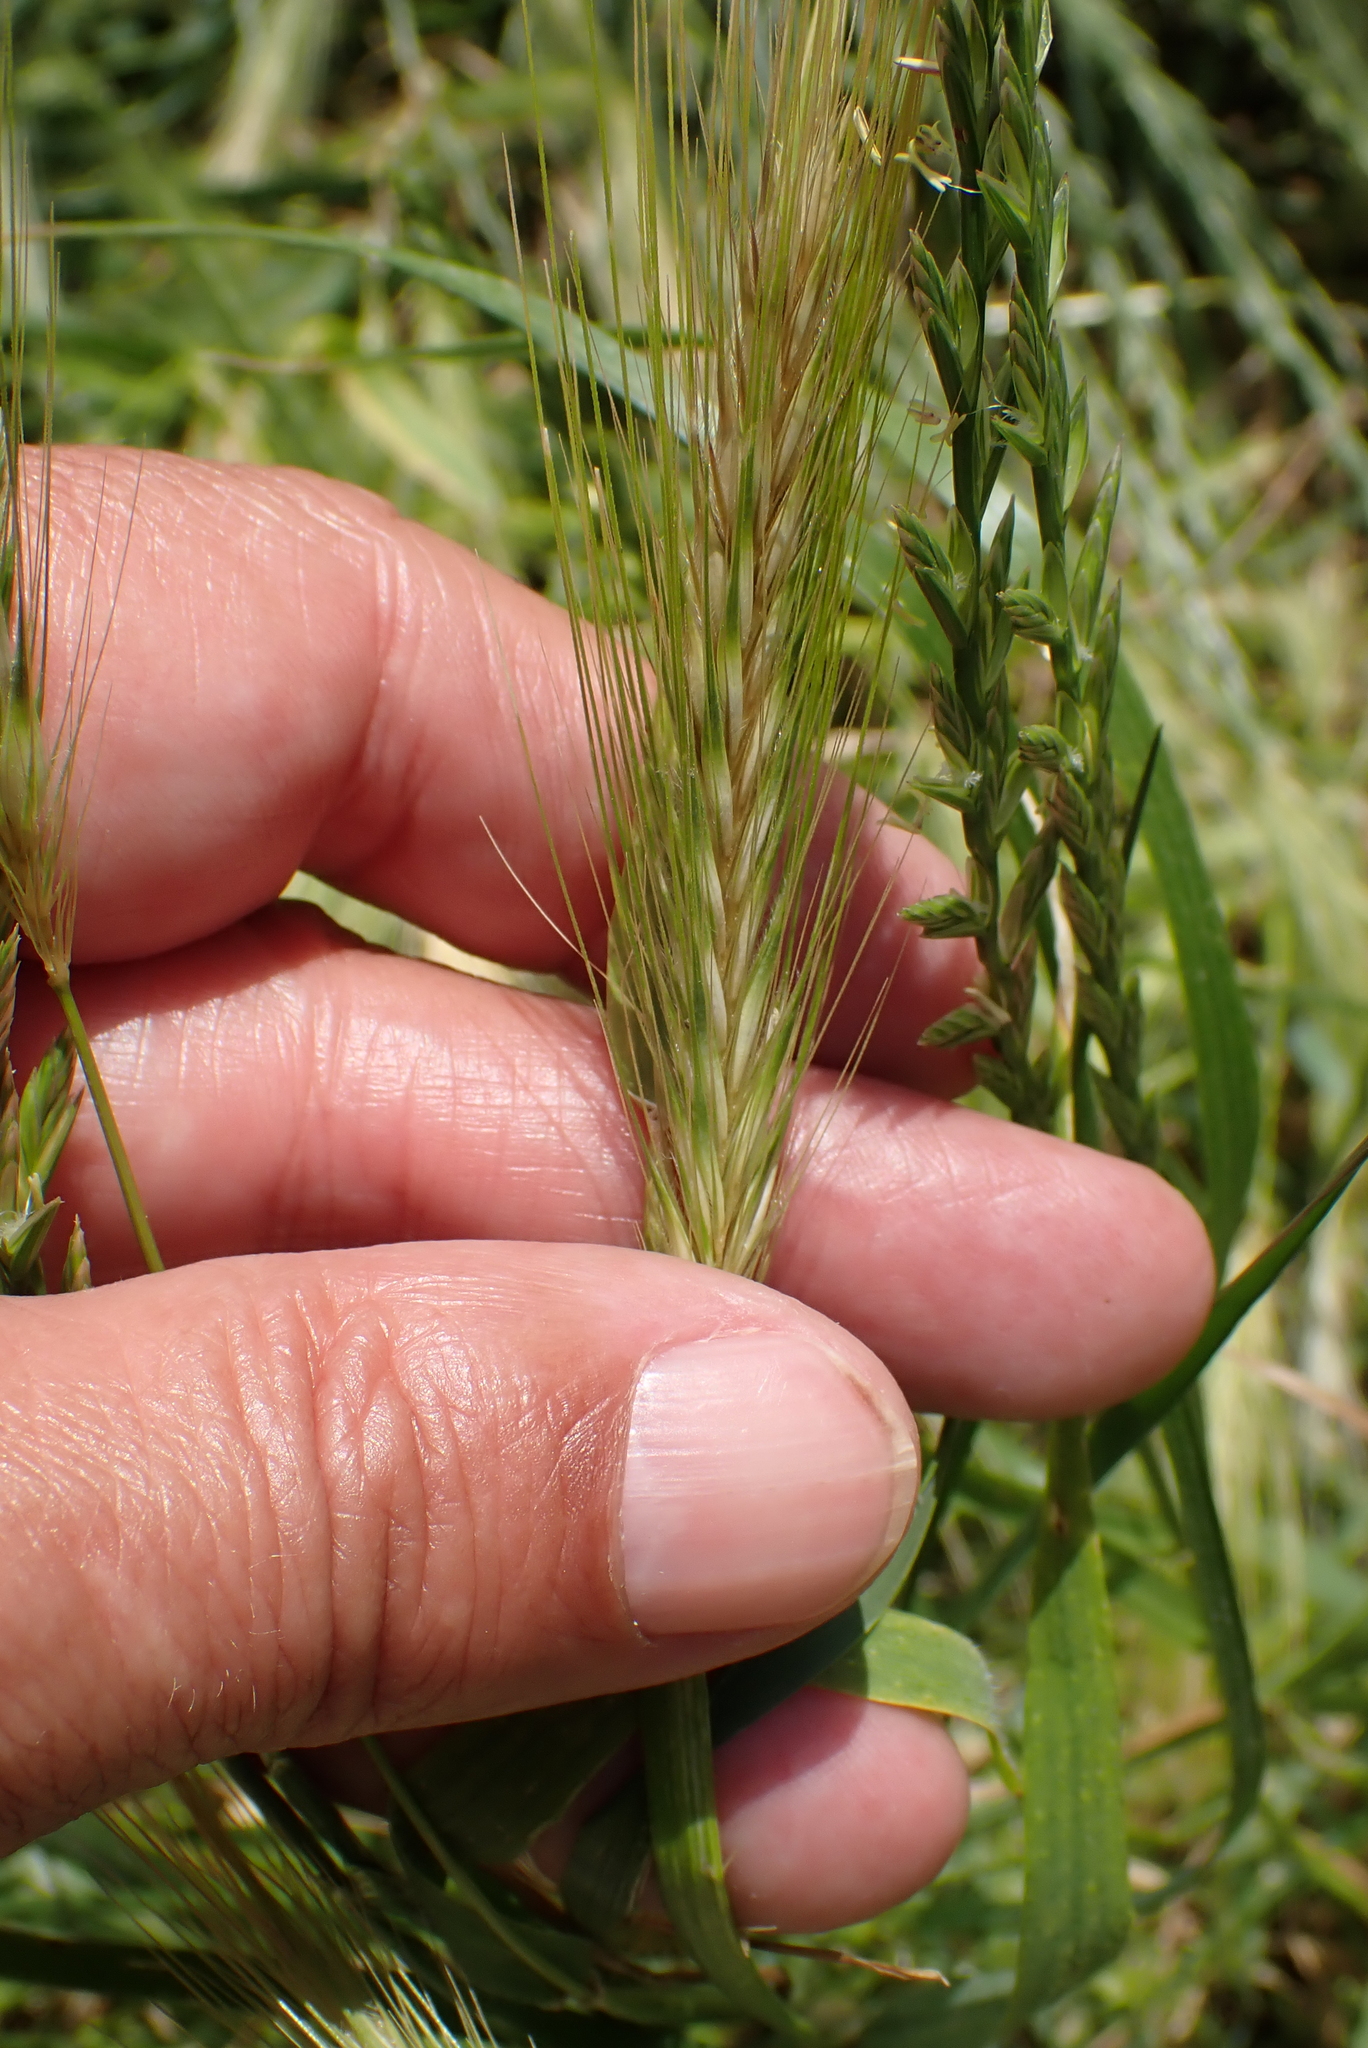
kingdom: Plantae
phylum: Tracheophyta
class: Liliopsida
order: Poales
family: Poaceae
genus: Hordeum
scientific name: Hordeum murinum
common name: Wall barley
